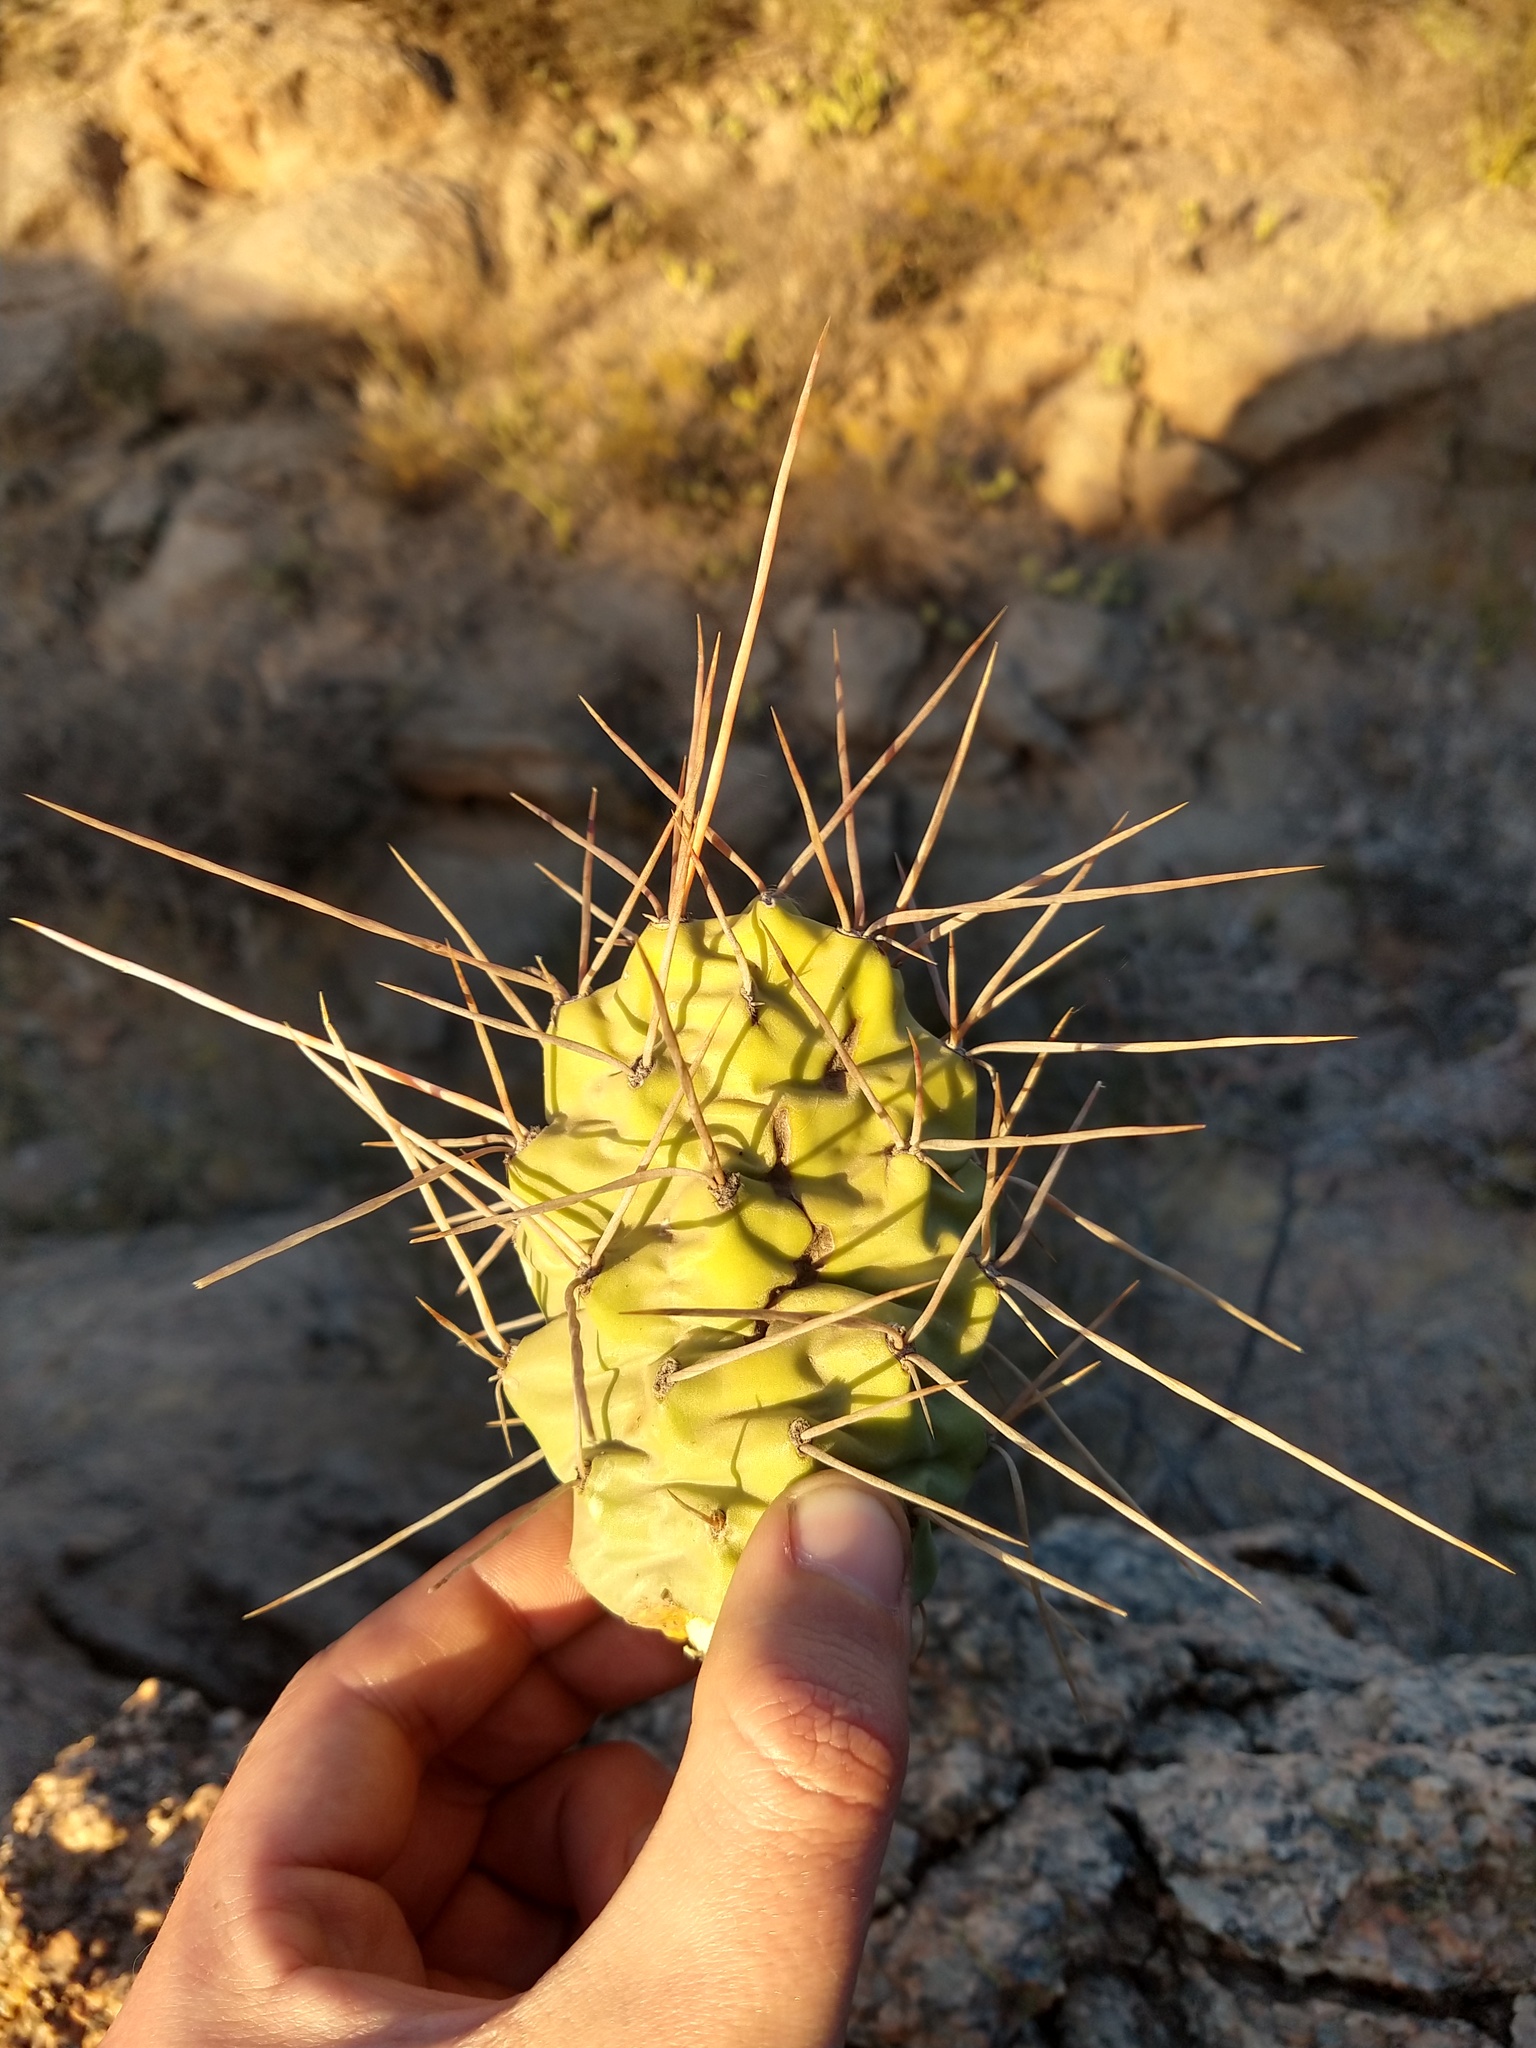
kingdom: Plantae
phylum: Tracheophyta
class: Magnoliopsida
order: Caryophyllales
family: Cactaceae
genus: Opuntia
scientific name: Opuntia sulphurea
